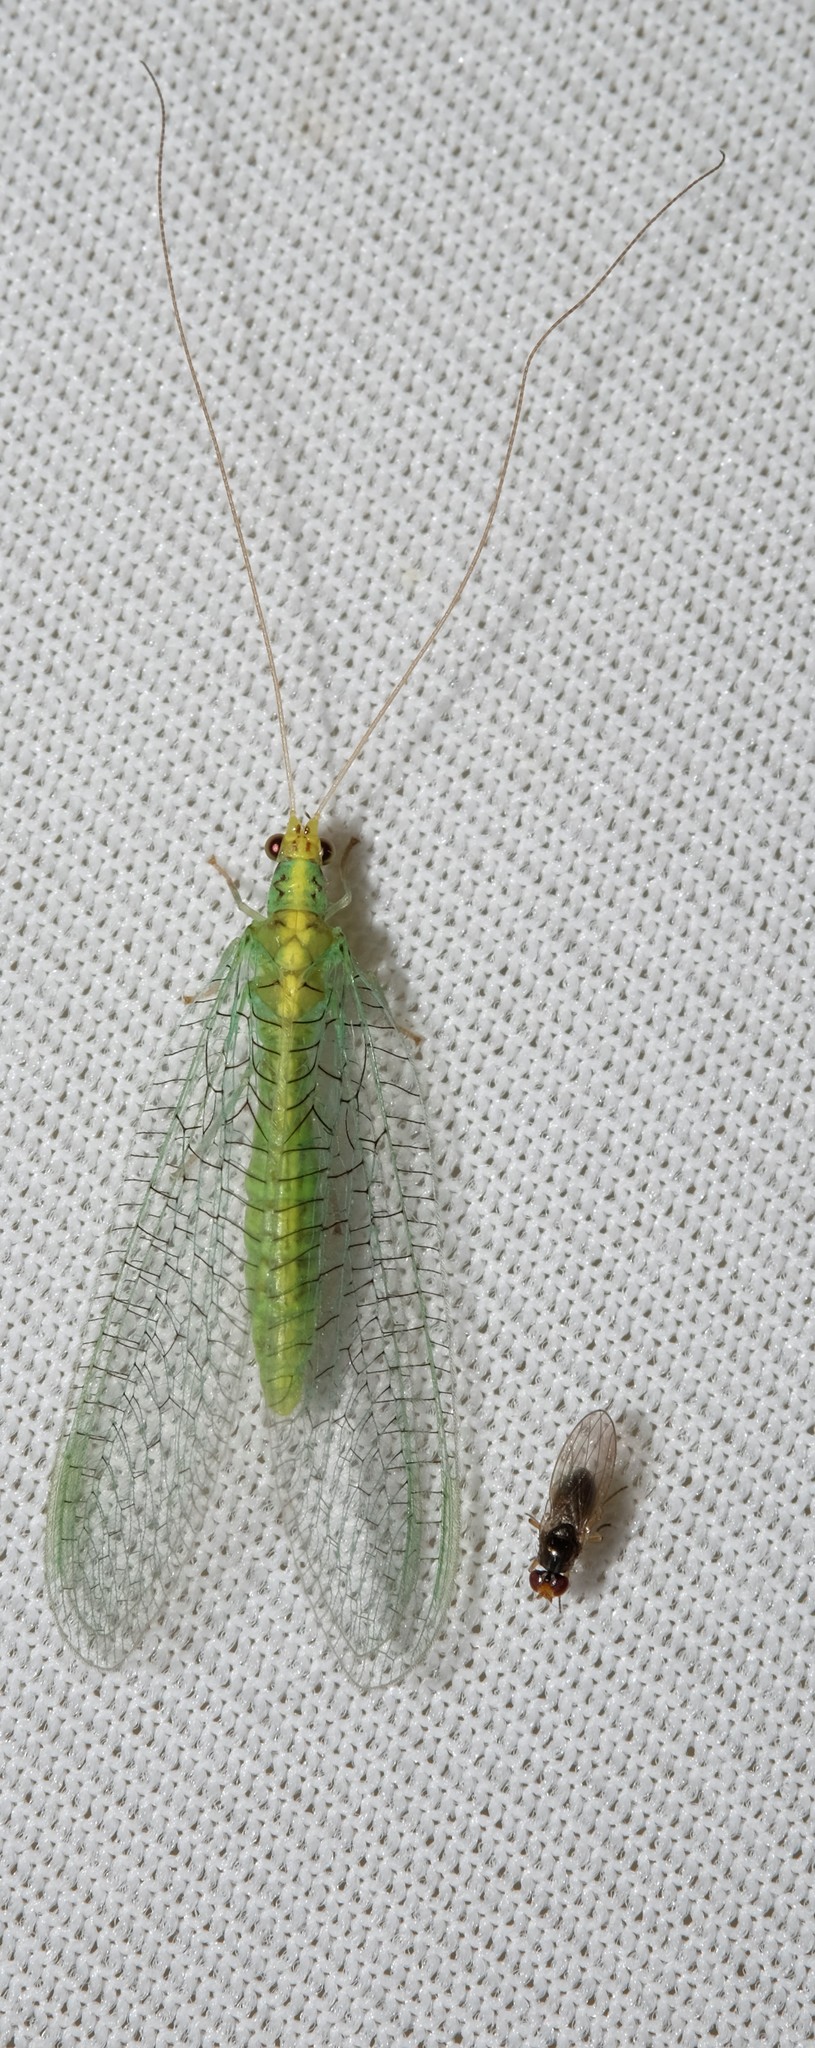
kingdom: Animalia
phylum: Arthropoda
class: Insecta
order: Neuroptera
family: Chrysopidae
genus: Pseudomallada
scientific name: Pseudomallada edwardsi
